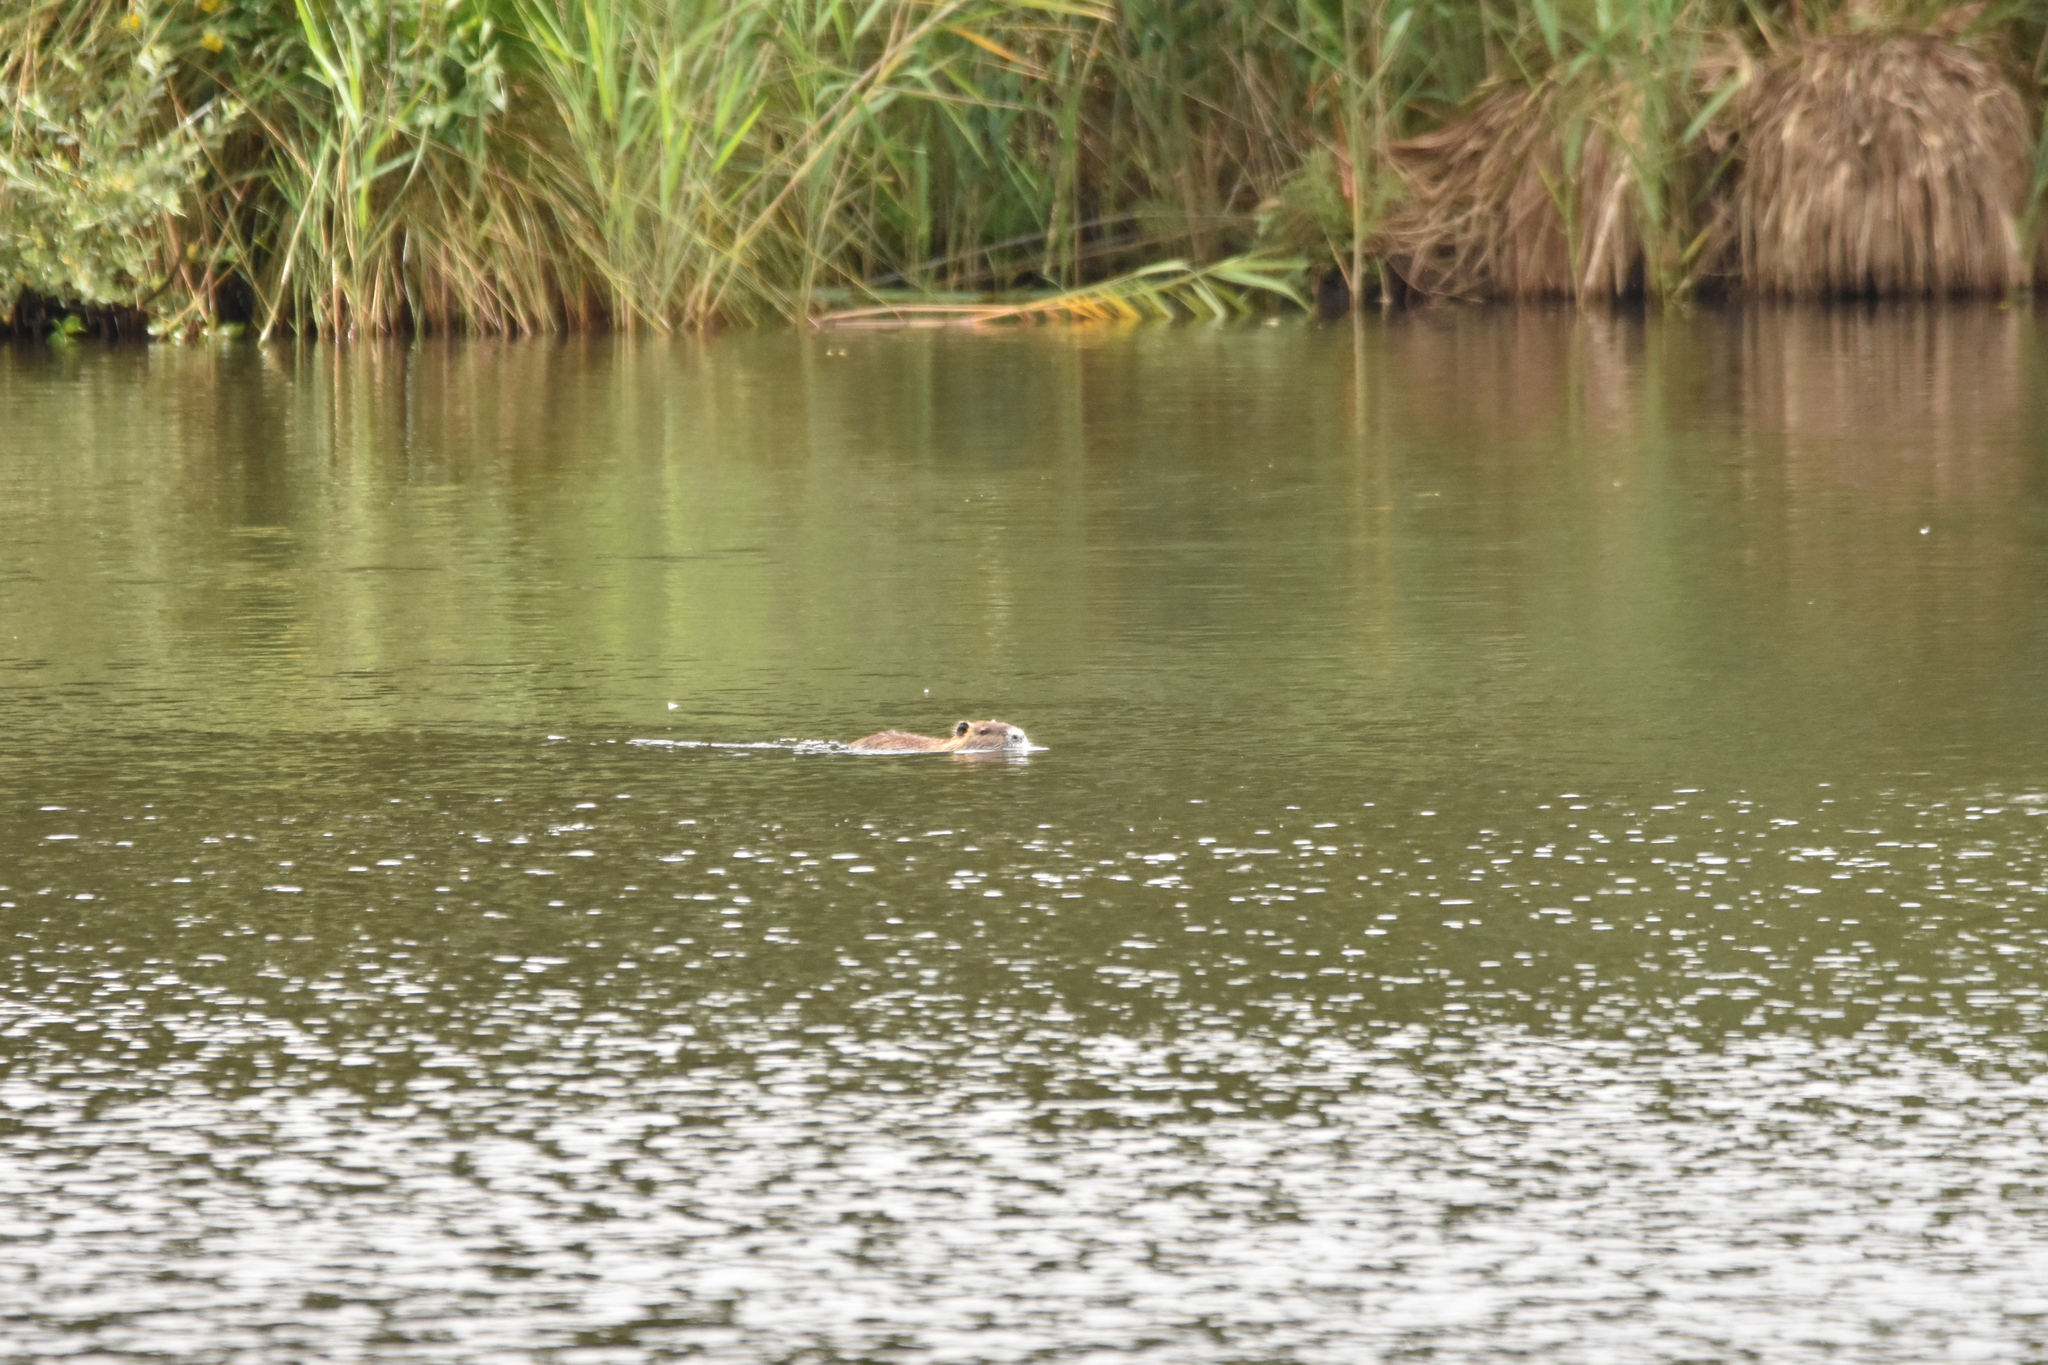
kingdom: Animalia
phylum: Chordata
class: Mammalia
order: Rodentia
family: Myocastoridae
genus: Myocastor
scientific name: Myocastor coypus
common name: Coypu
